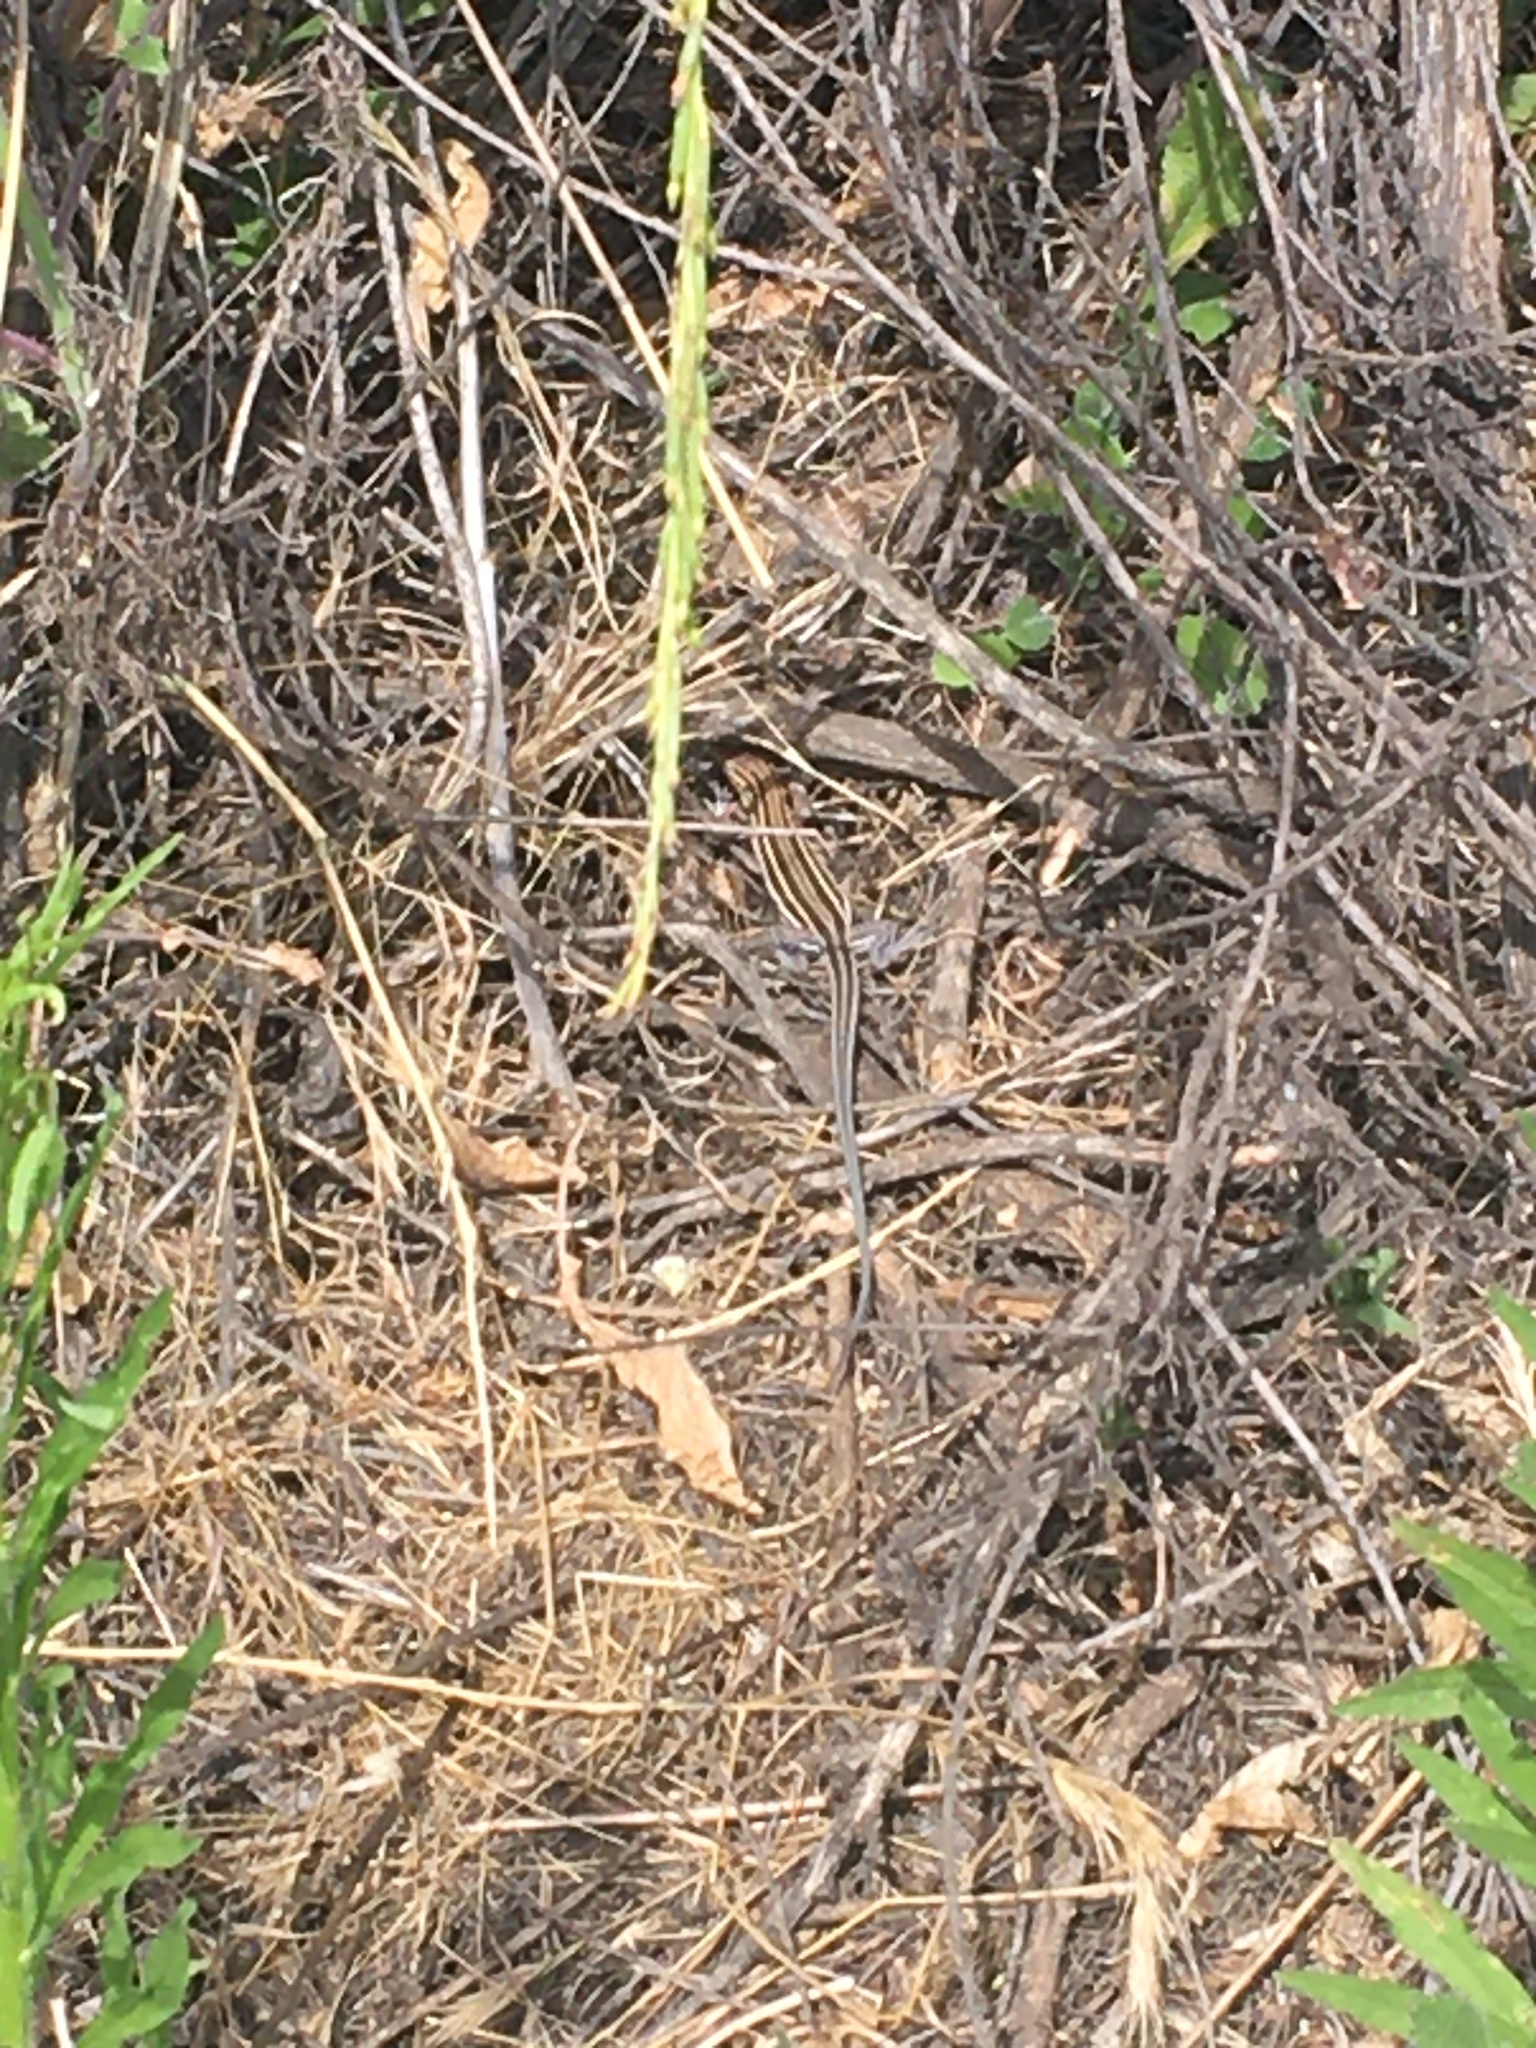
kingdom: Animalia
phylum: Chordata
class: Squamata
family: Teiidae
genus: Aspidoscelis
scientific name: Aspidoscelis hyperythrus
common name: Orange-throated race-runner
